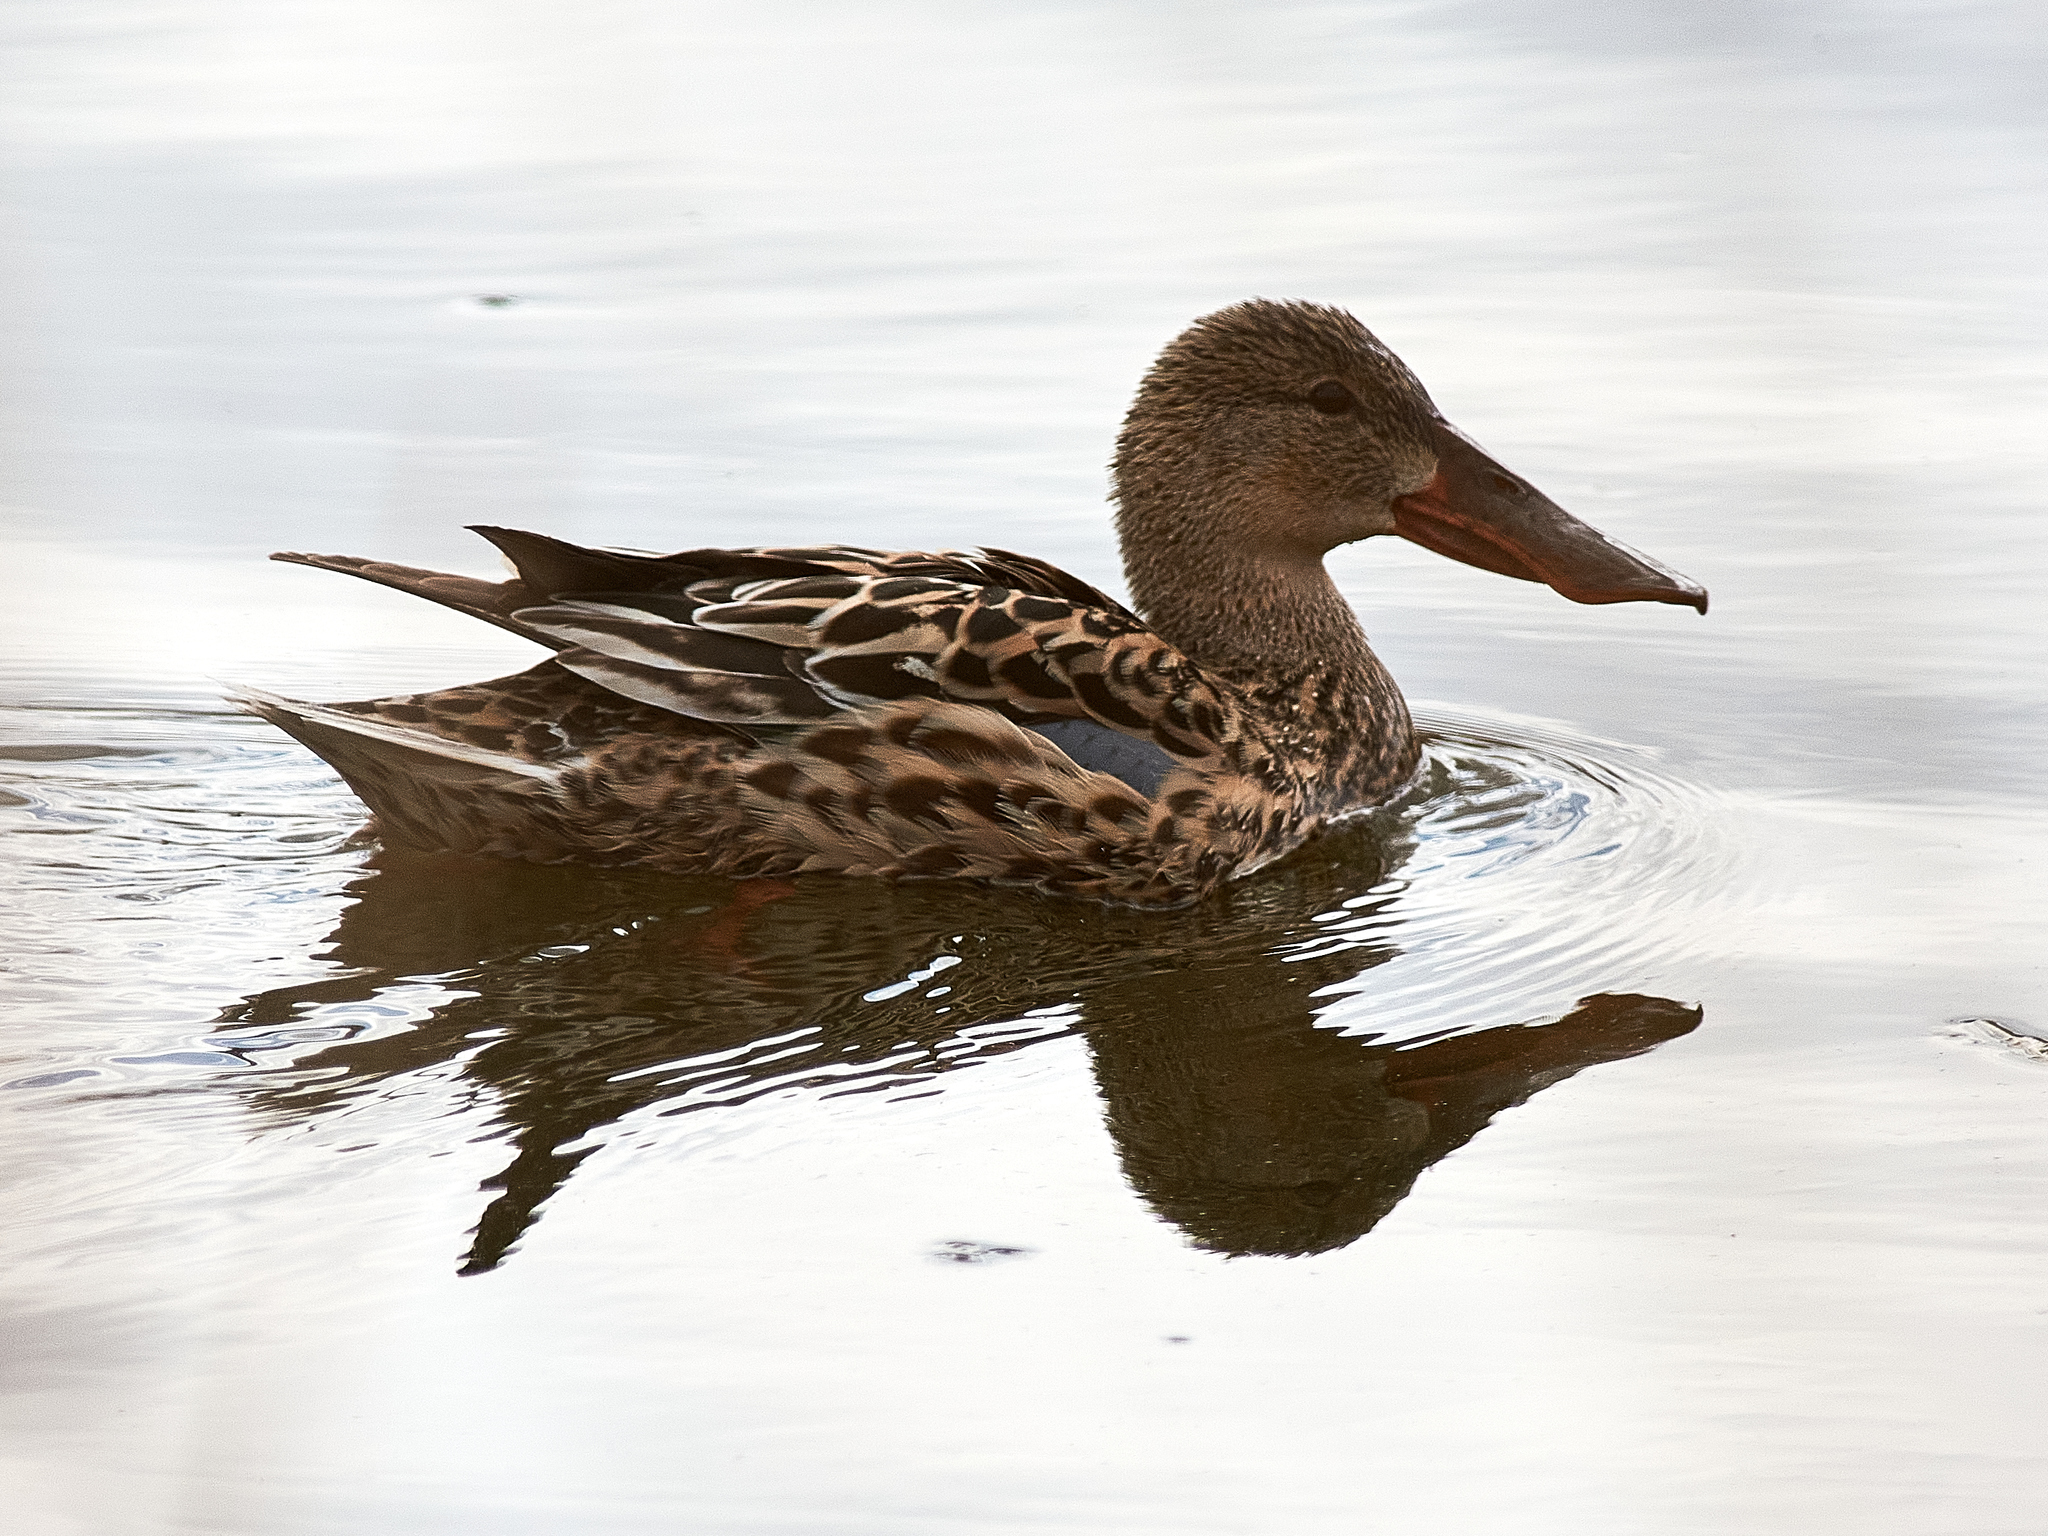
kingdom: Animalia
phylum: Chordata
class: Aves
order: Anseriformes
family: Anatidae
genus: Spatula
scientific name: Spatula clypeata
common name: Northern shoveler
